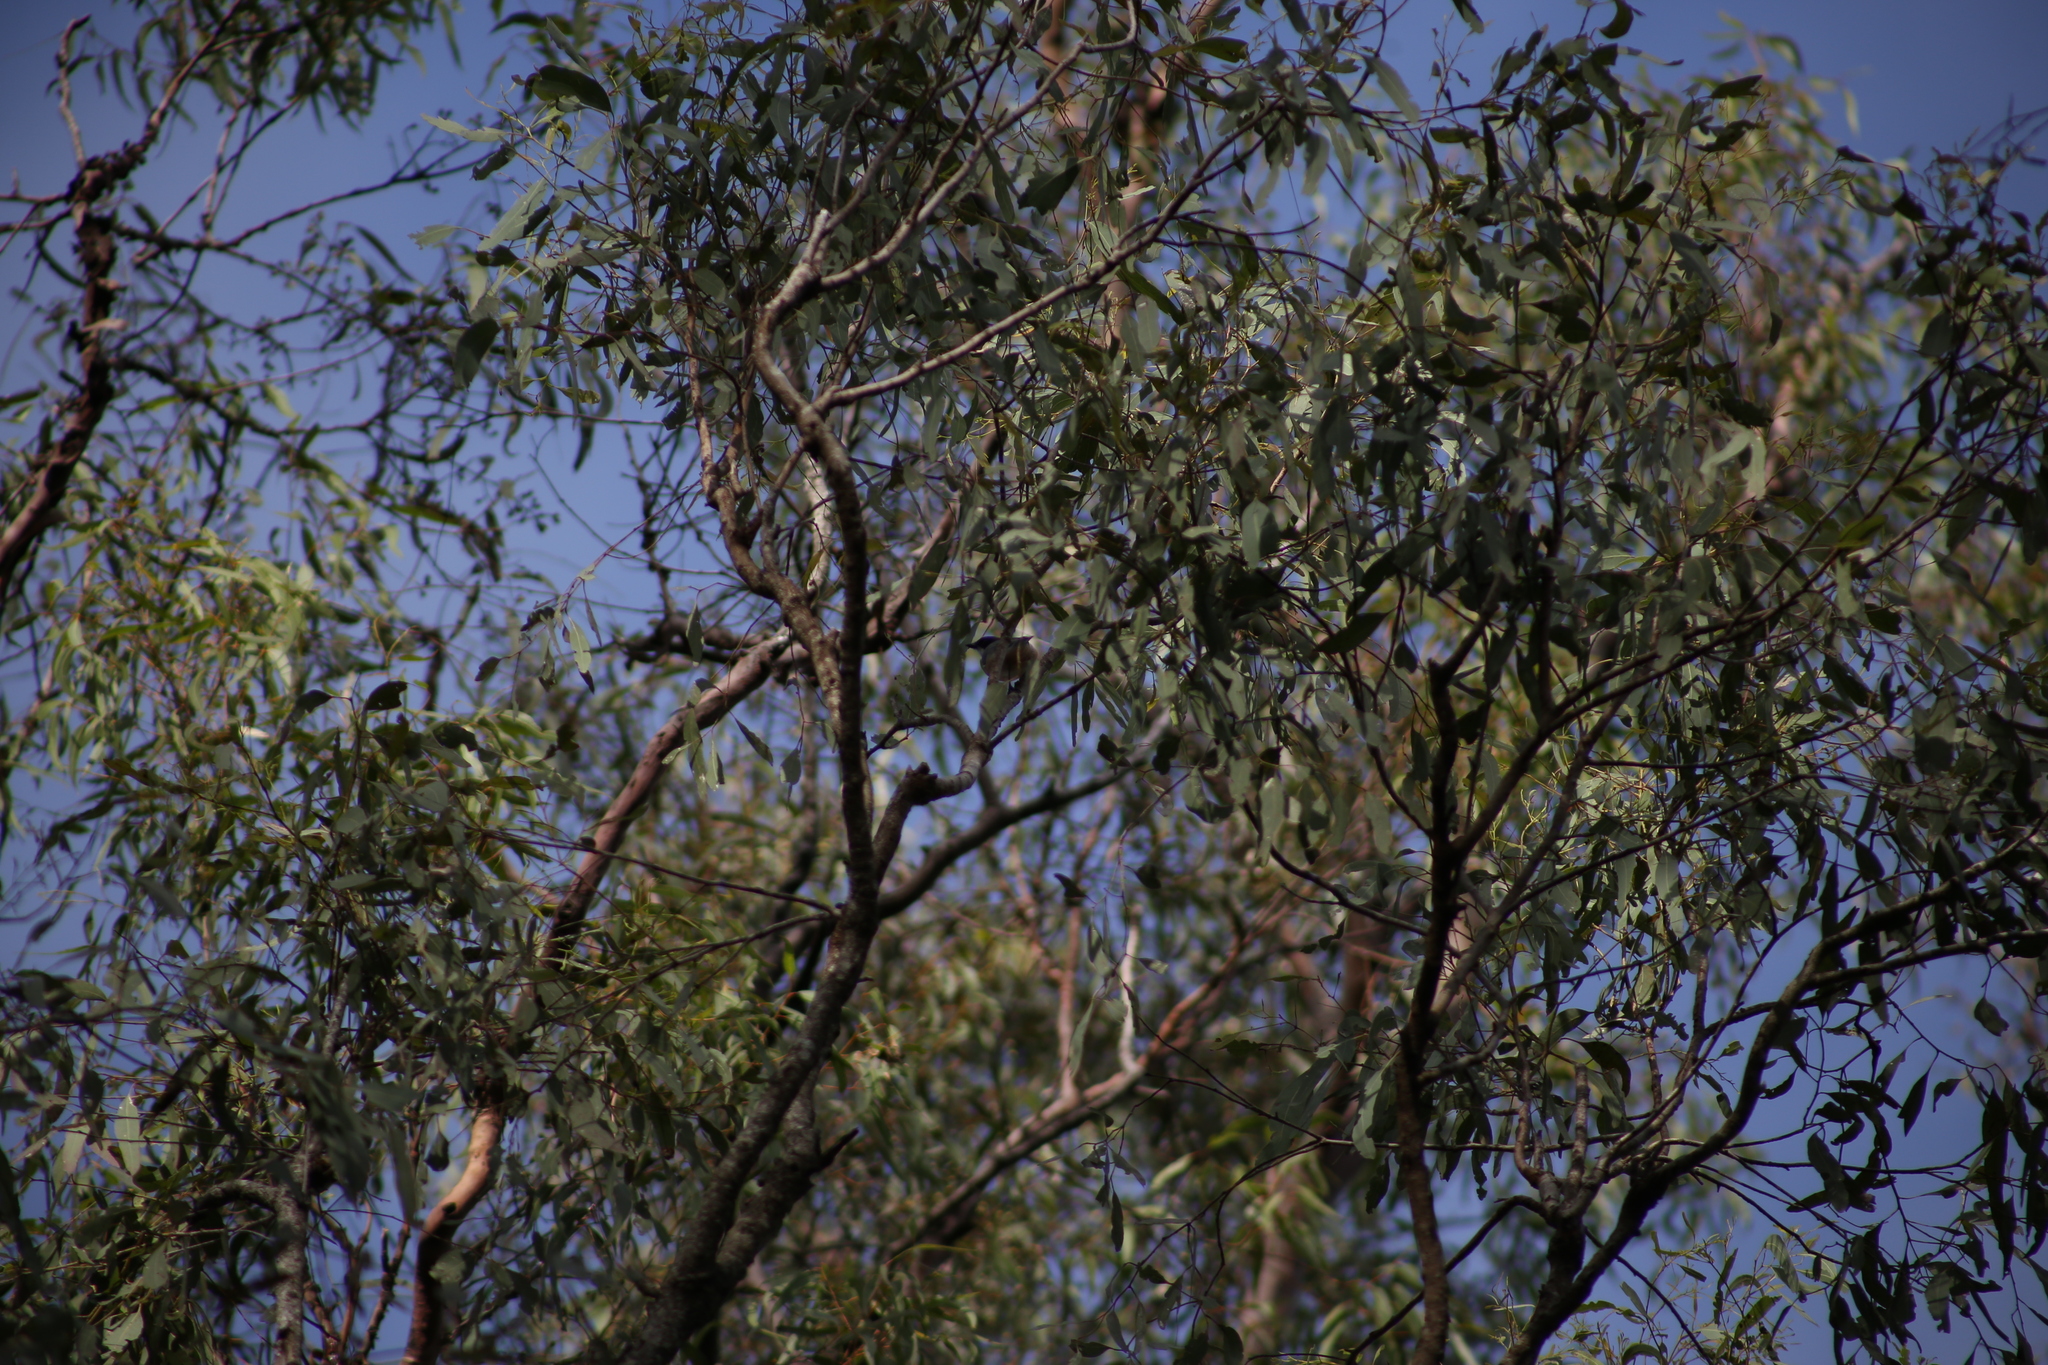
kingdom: Animalia
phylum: Chordata
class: Aves
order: Passeriformes
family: Pachycephalidae
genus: Pachycephala
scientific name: Pachycephala rufiventris
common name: Rufous whistler
